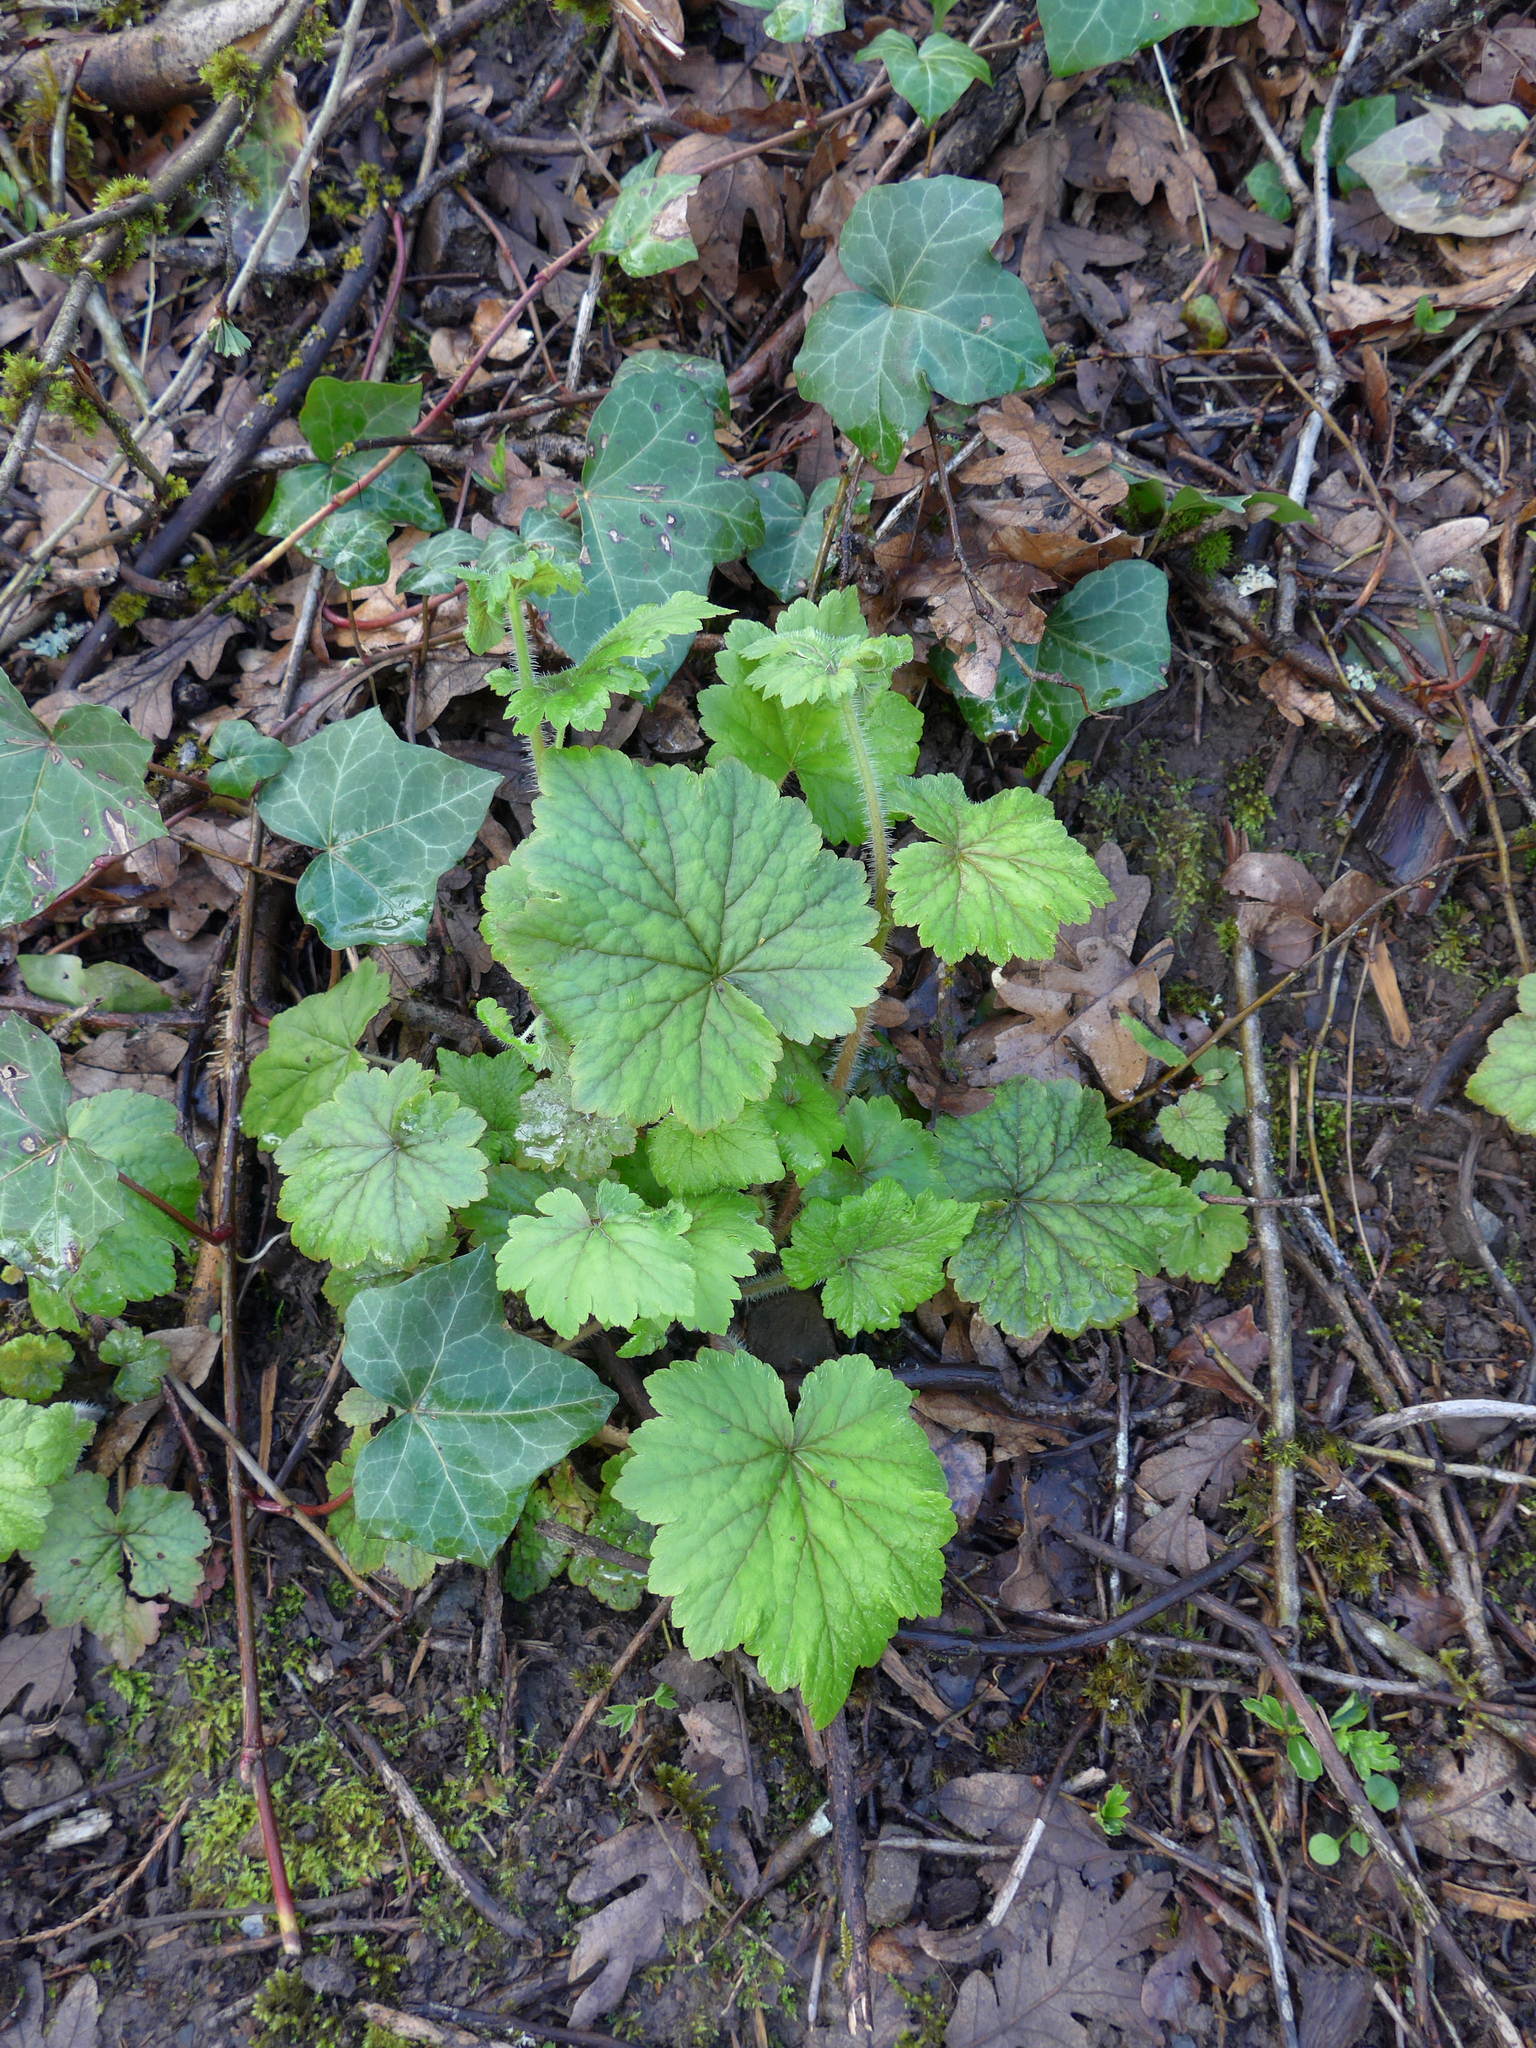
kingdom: Plantae
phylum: Tracheophyta
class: Magnoliopsida
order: Saxifragales
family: Saxifragaceae
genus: Tellima
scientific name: Tellima grandiflora
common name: Fringecups
